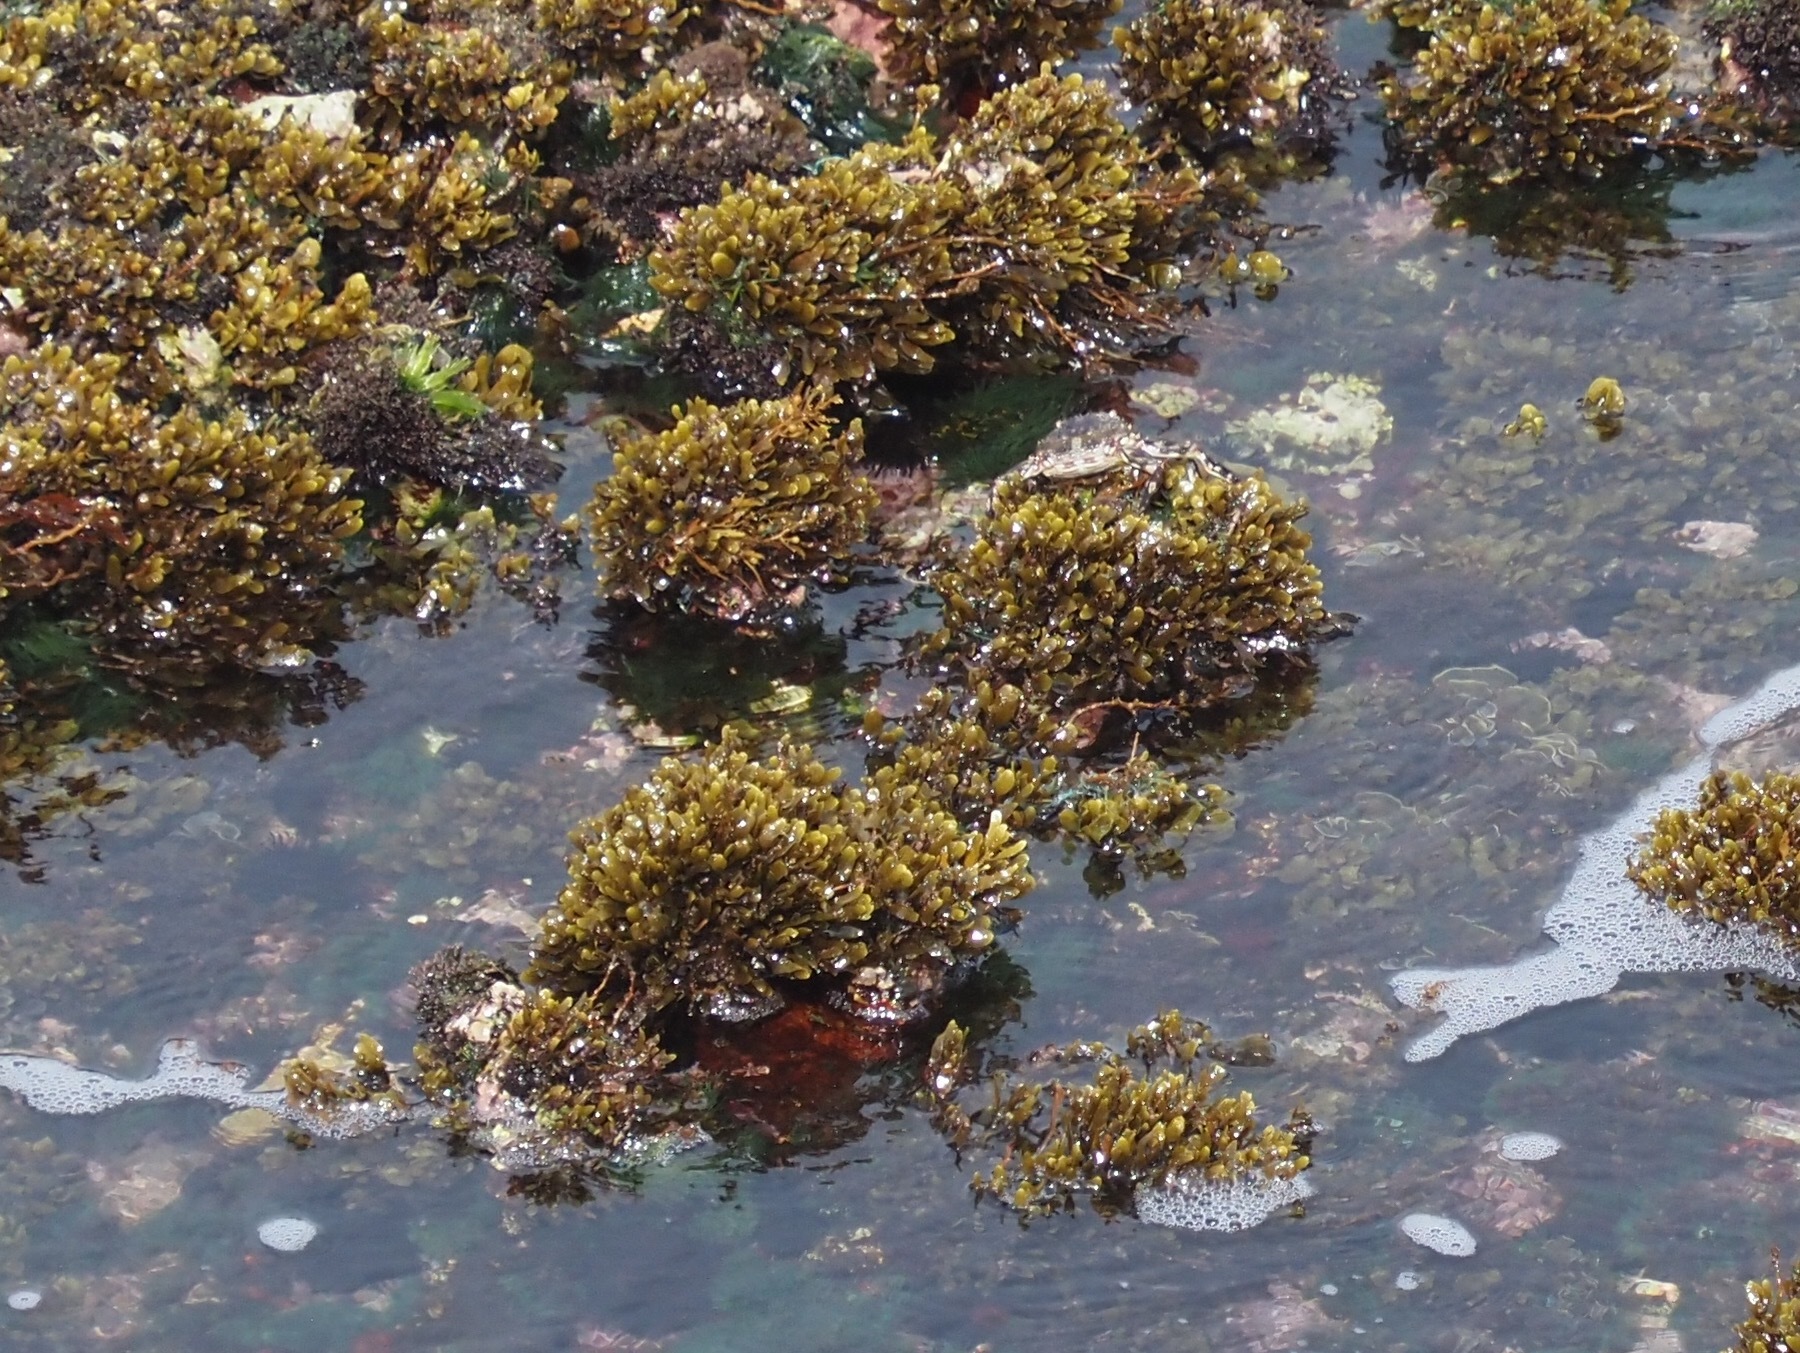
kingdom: Animalia
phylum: Arthropoda
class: Malacostraca
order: Decapoda
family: Plagusiidae
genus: Plagusia
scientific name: Plagusia depressa
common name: Flattened crab
